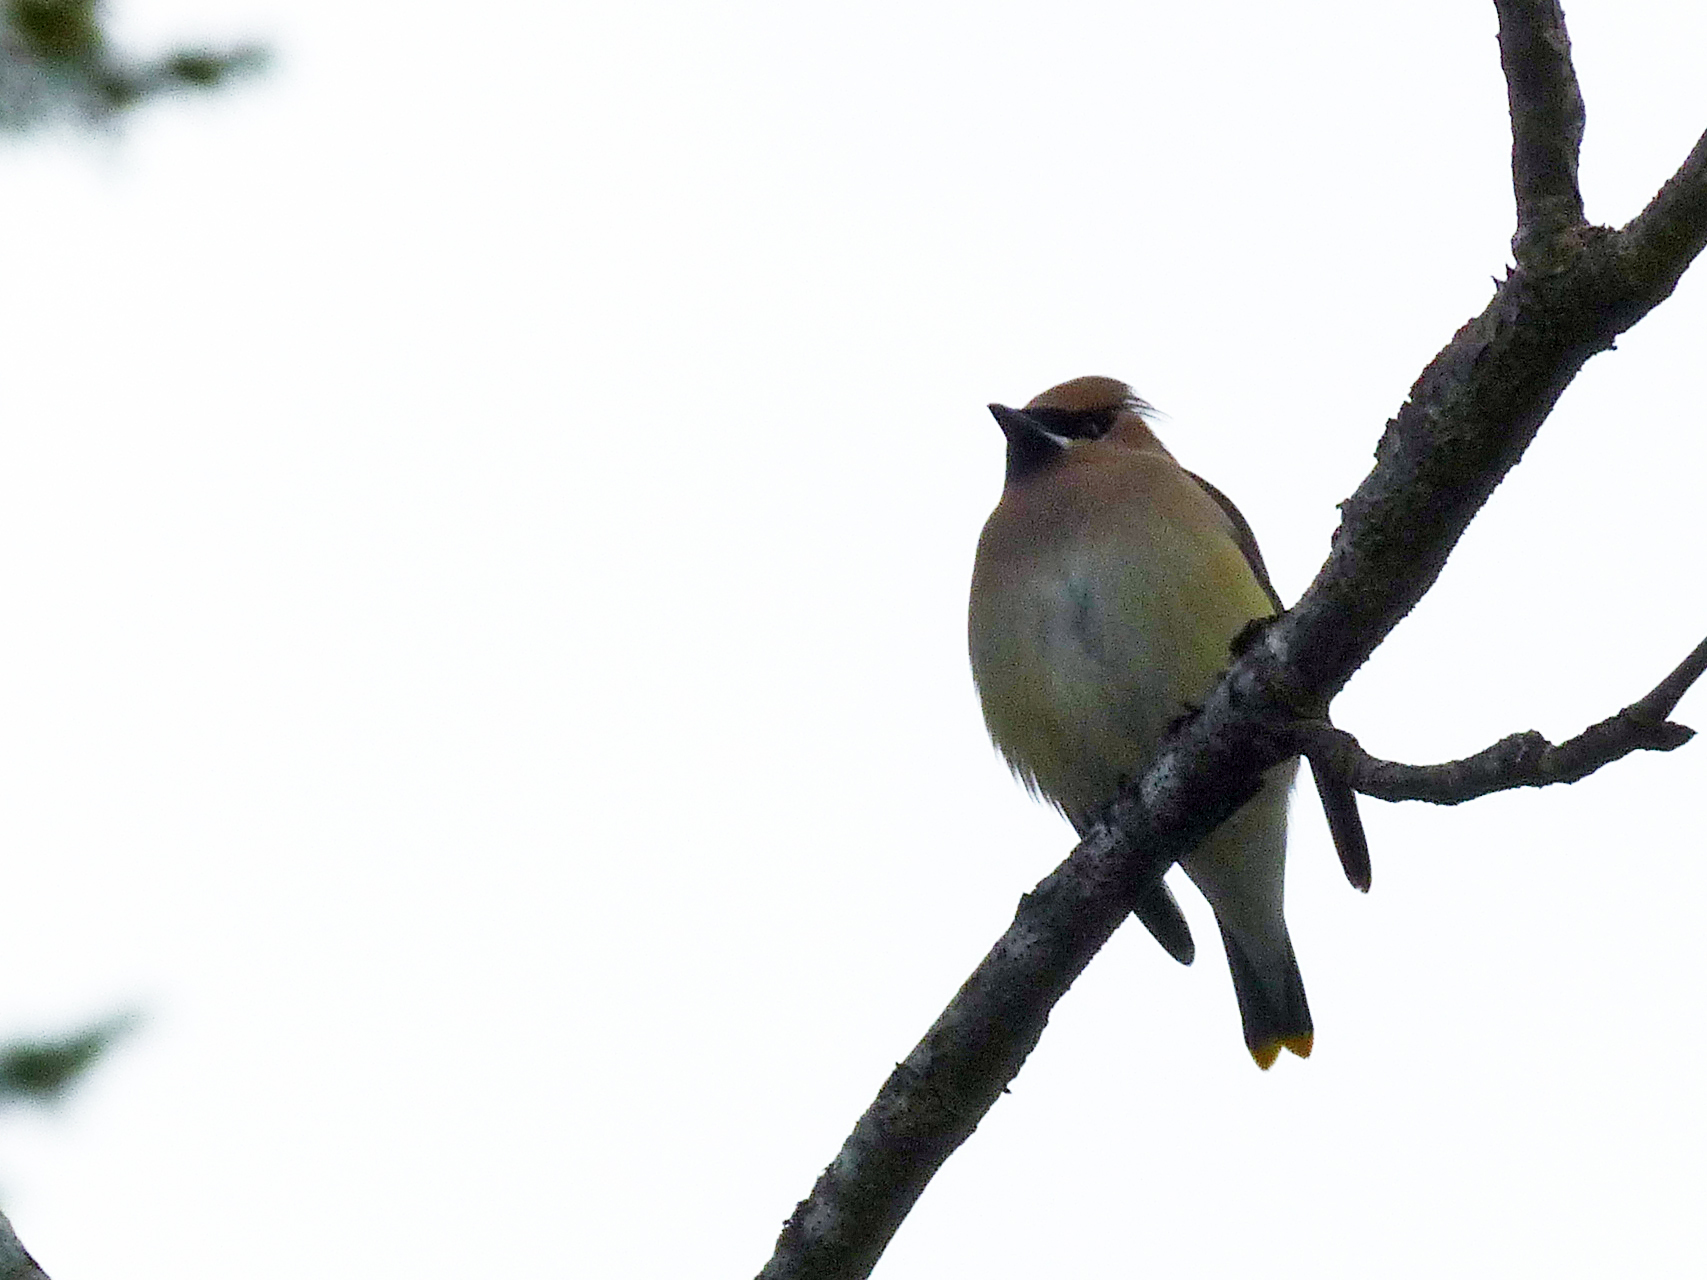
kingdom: Animalia
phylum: Chordata
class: Aves
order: Passeriformes
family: Bombycillidae
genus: Bombycilla
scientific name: Bombycilla cedrorum
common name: Cedar waxwing
